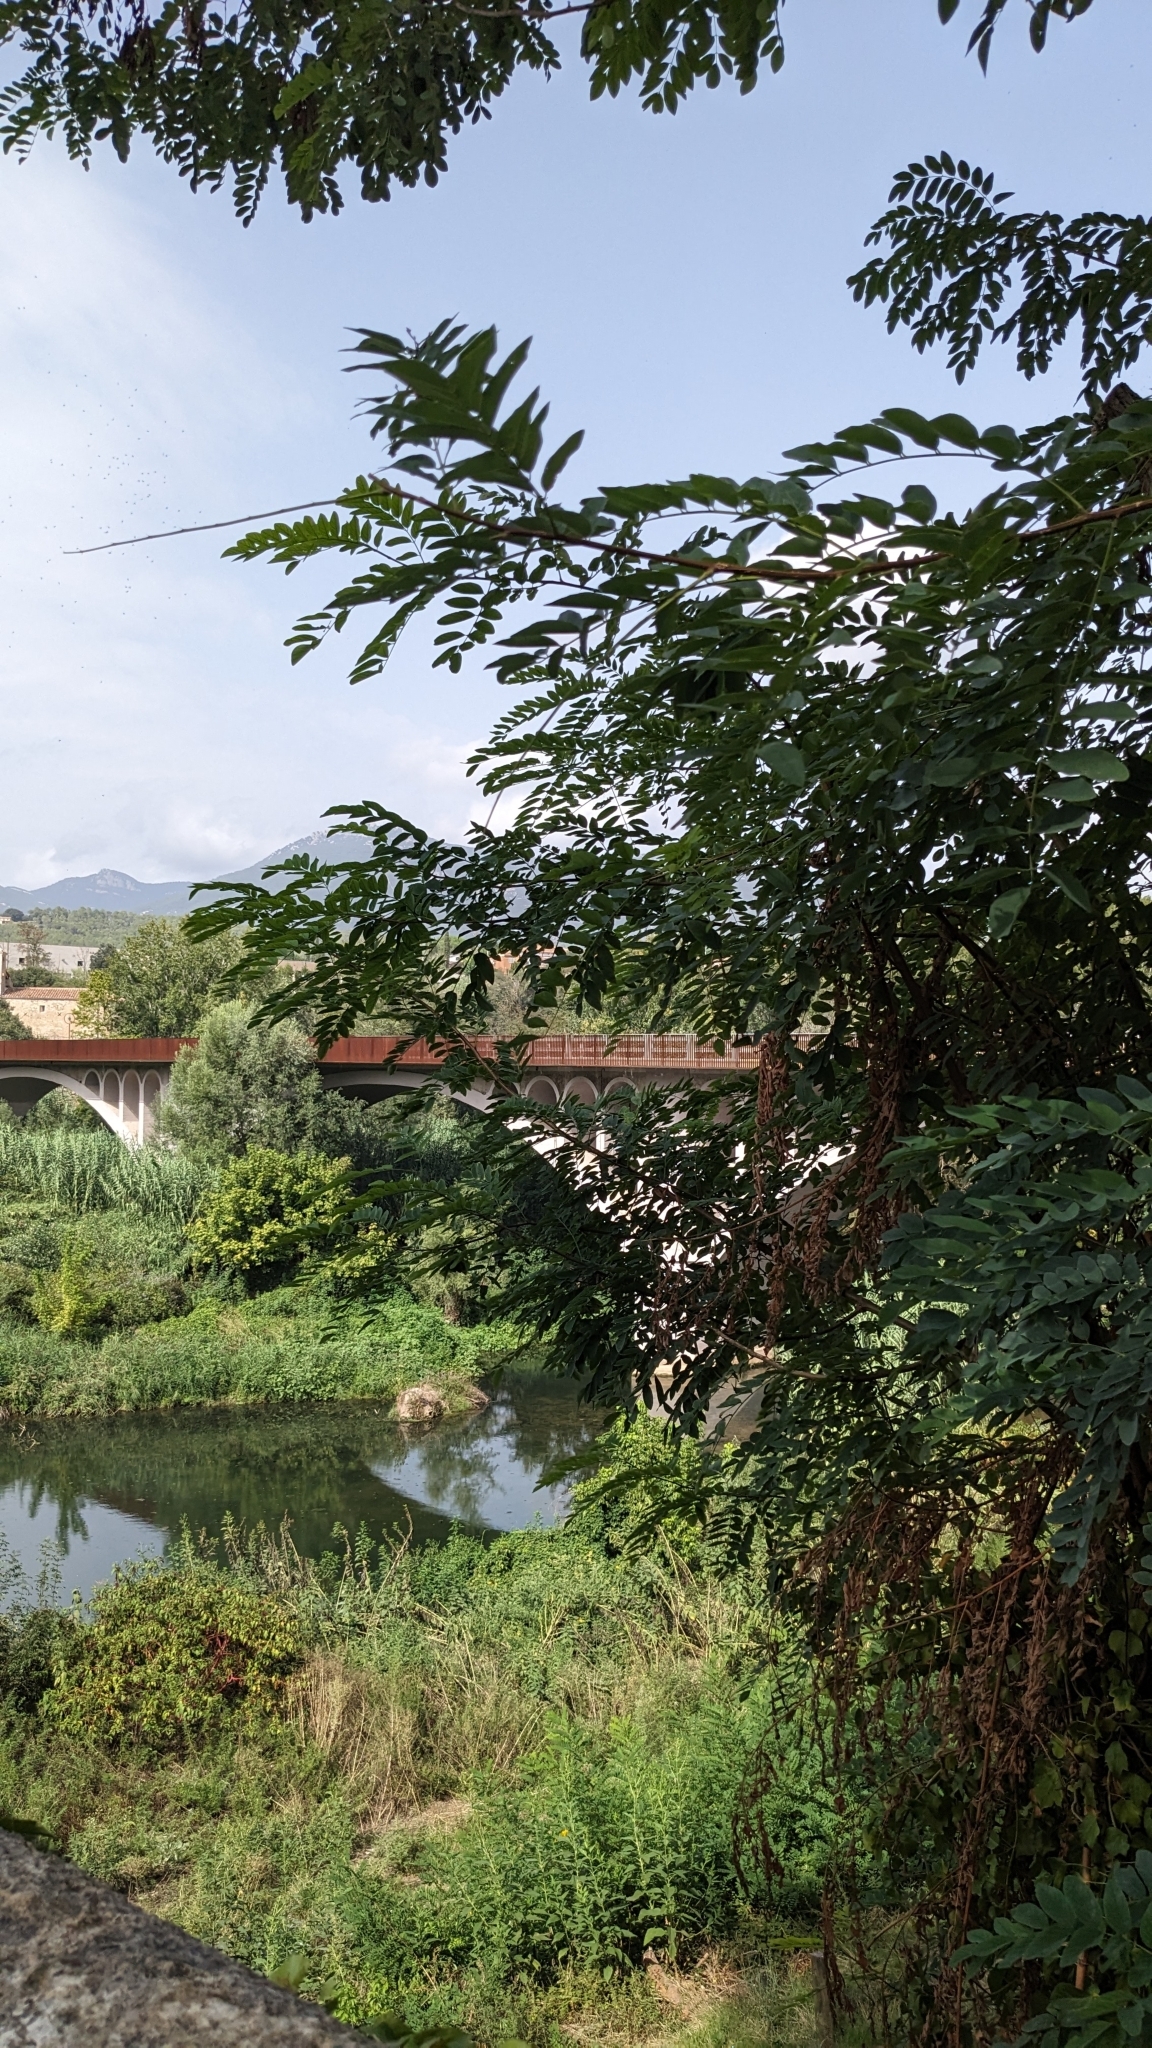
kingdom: Plantae
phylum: Tracheophyta
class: Magnoliopsida
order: Fabales
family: Fabaceae
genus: Robinia
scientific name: Robinia pseudoacacia
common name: Black locust
